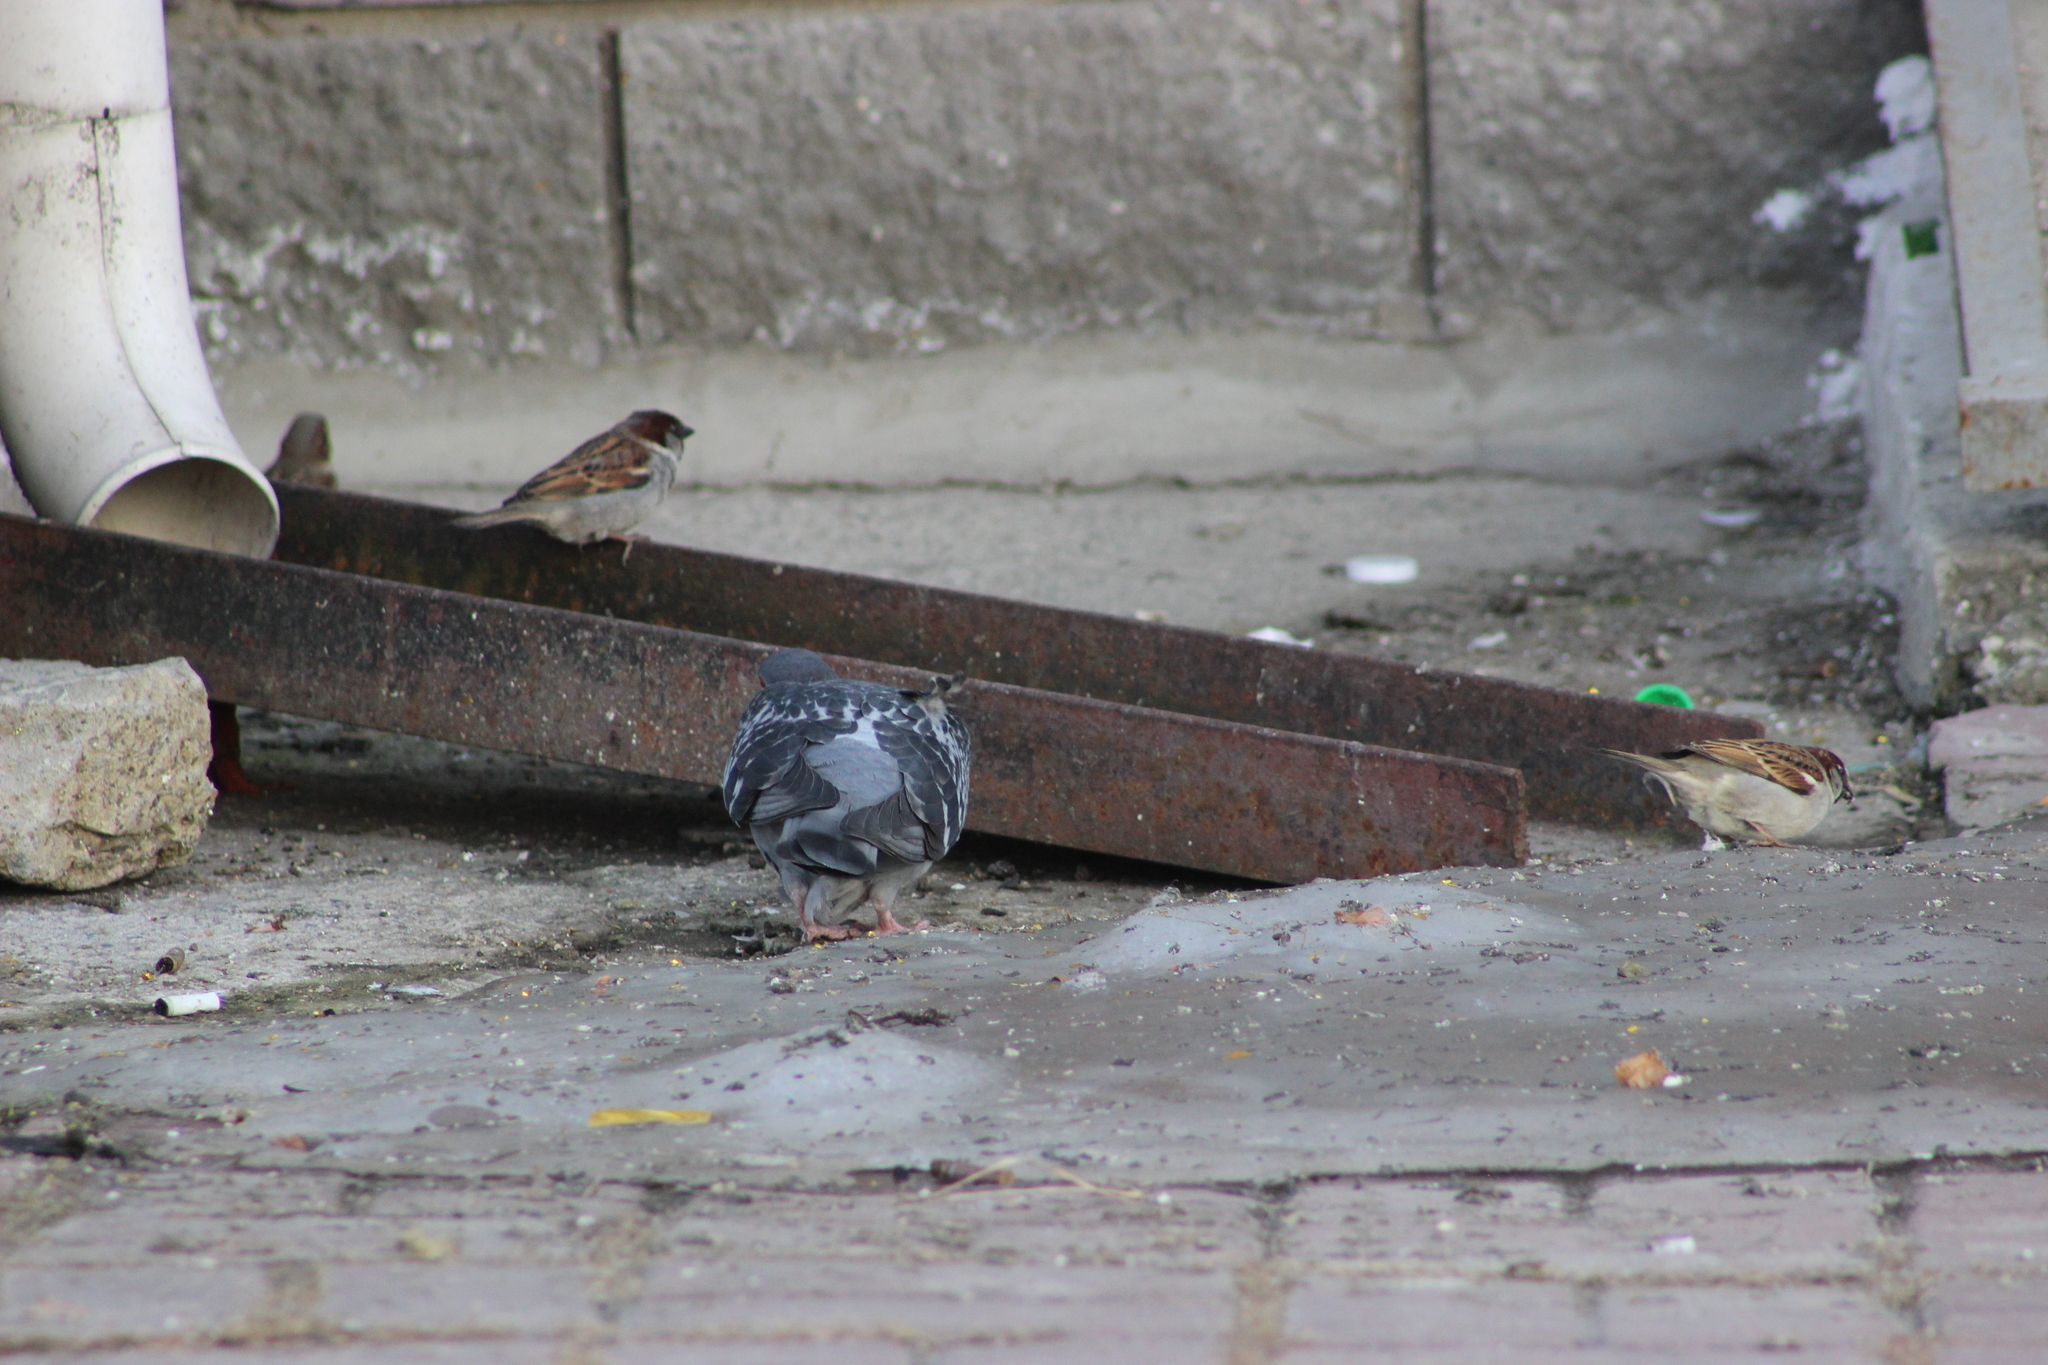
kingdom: Animalia
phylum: Chordata
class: Aves
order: Passeriformes
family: Passeridae
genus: Passer
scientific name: Passer domesticus
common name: House sparrow
